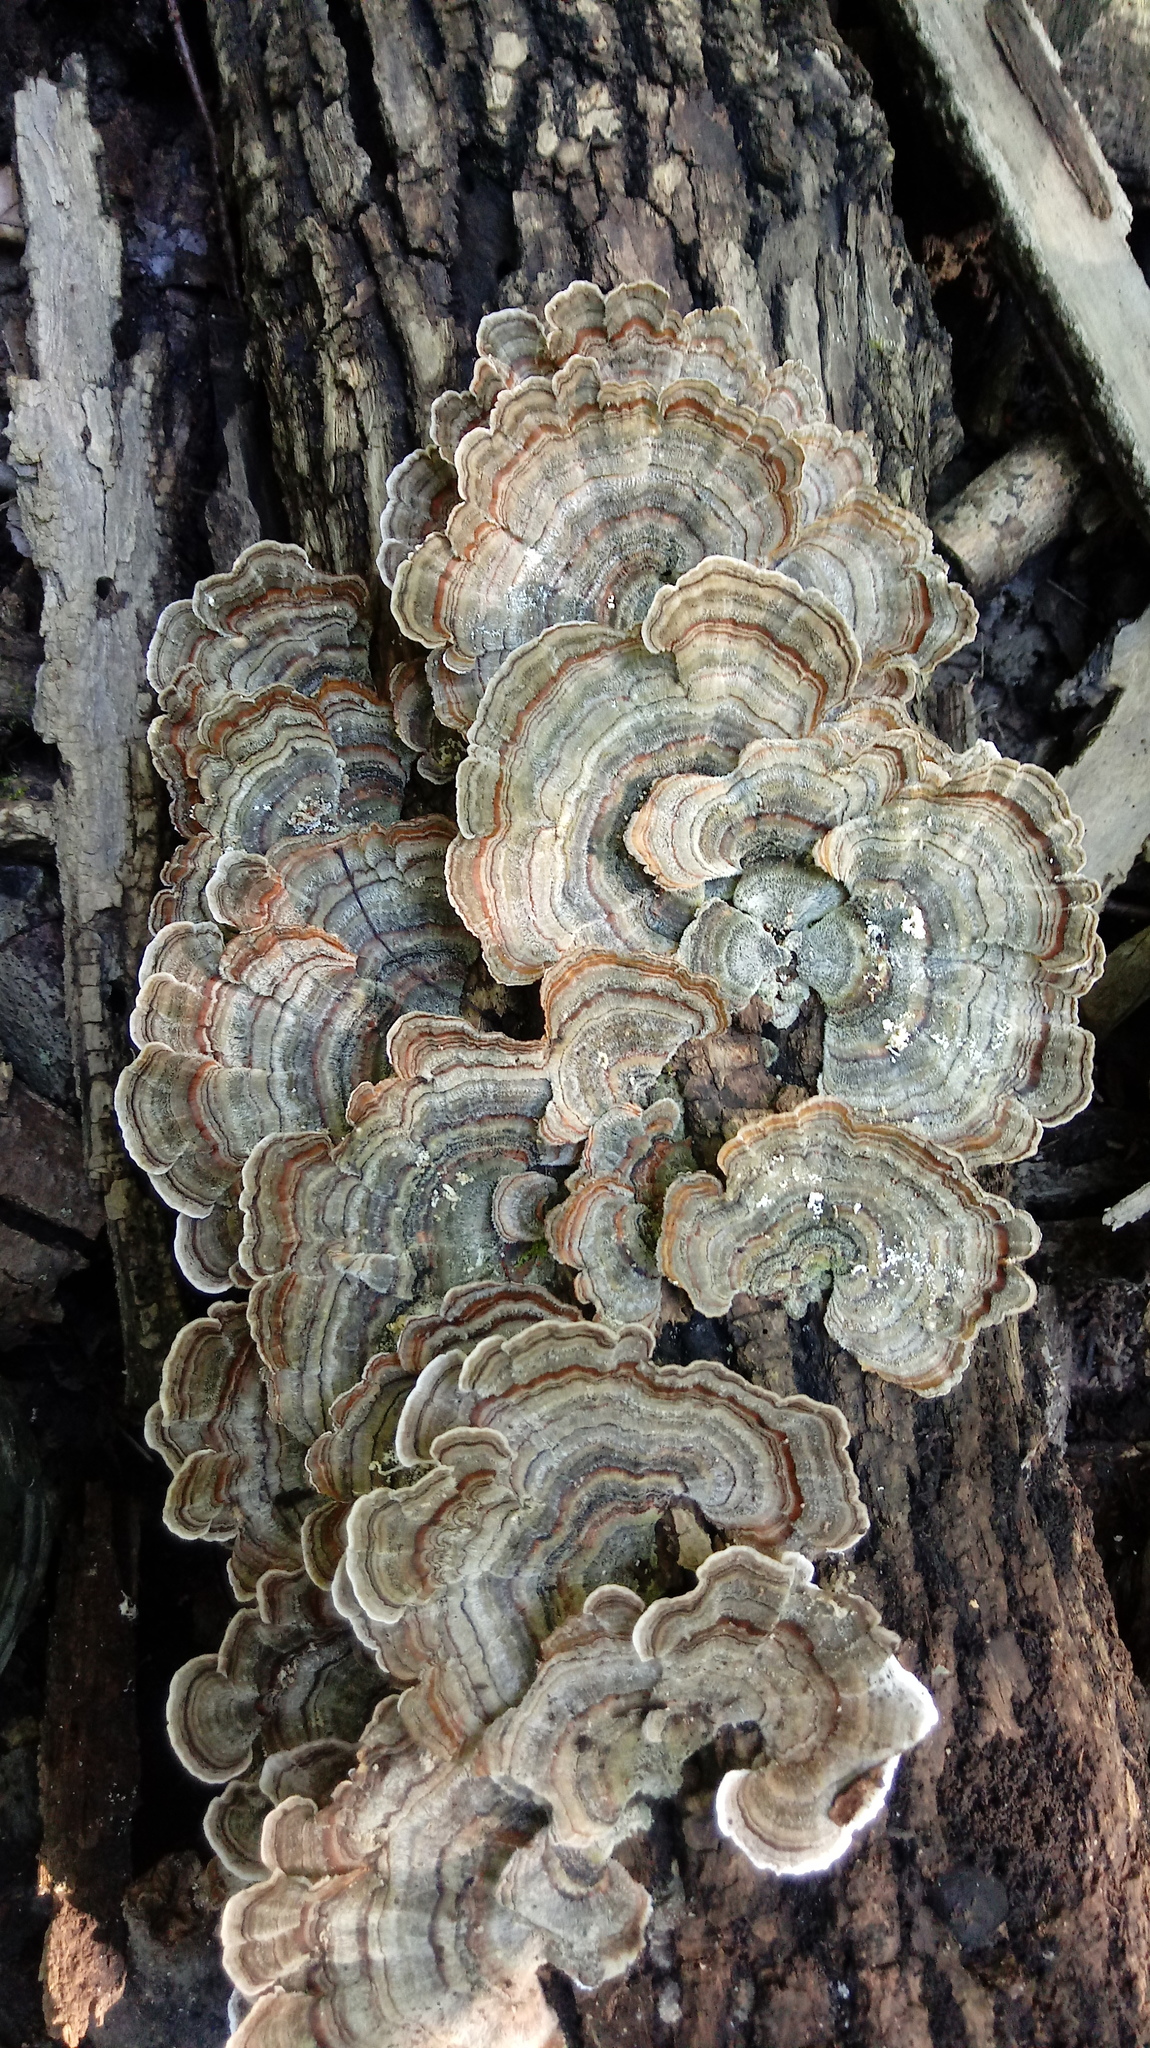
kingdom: Fungi
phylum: Basidiomycota
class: Agaricomycetes
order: Polyporales
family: Polyporaceae
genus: Trametes
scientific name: Trametes versicolor
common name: Turkeytail
